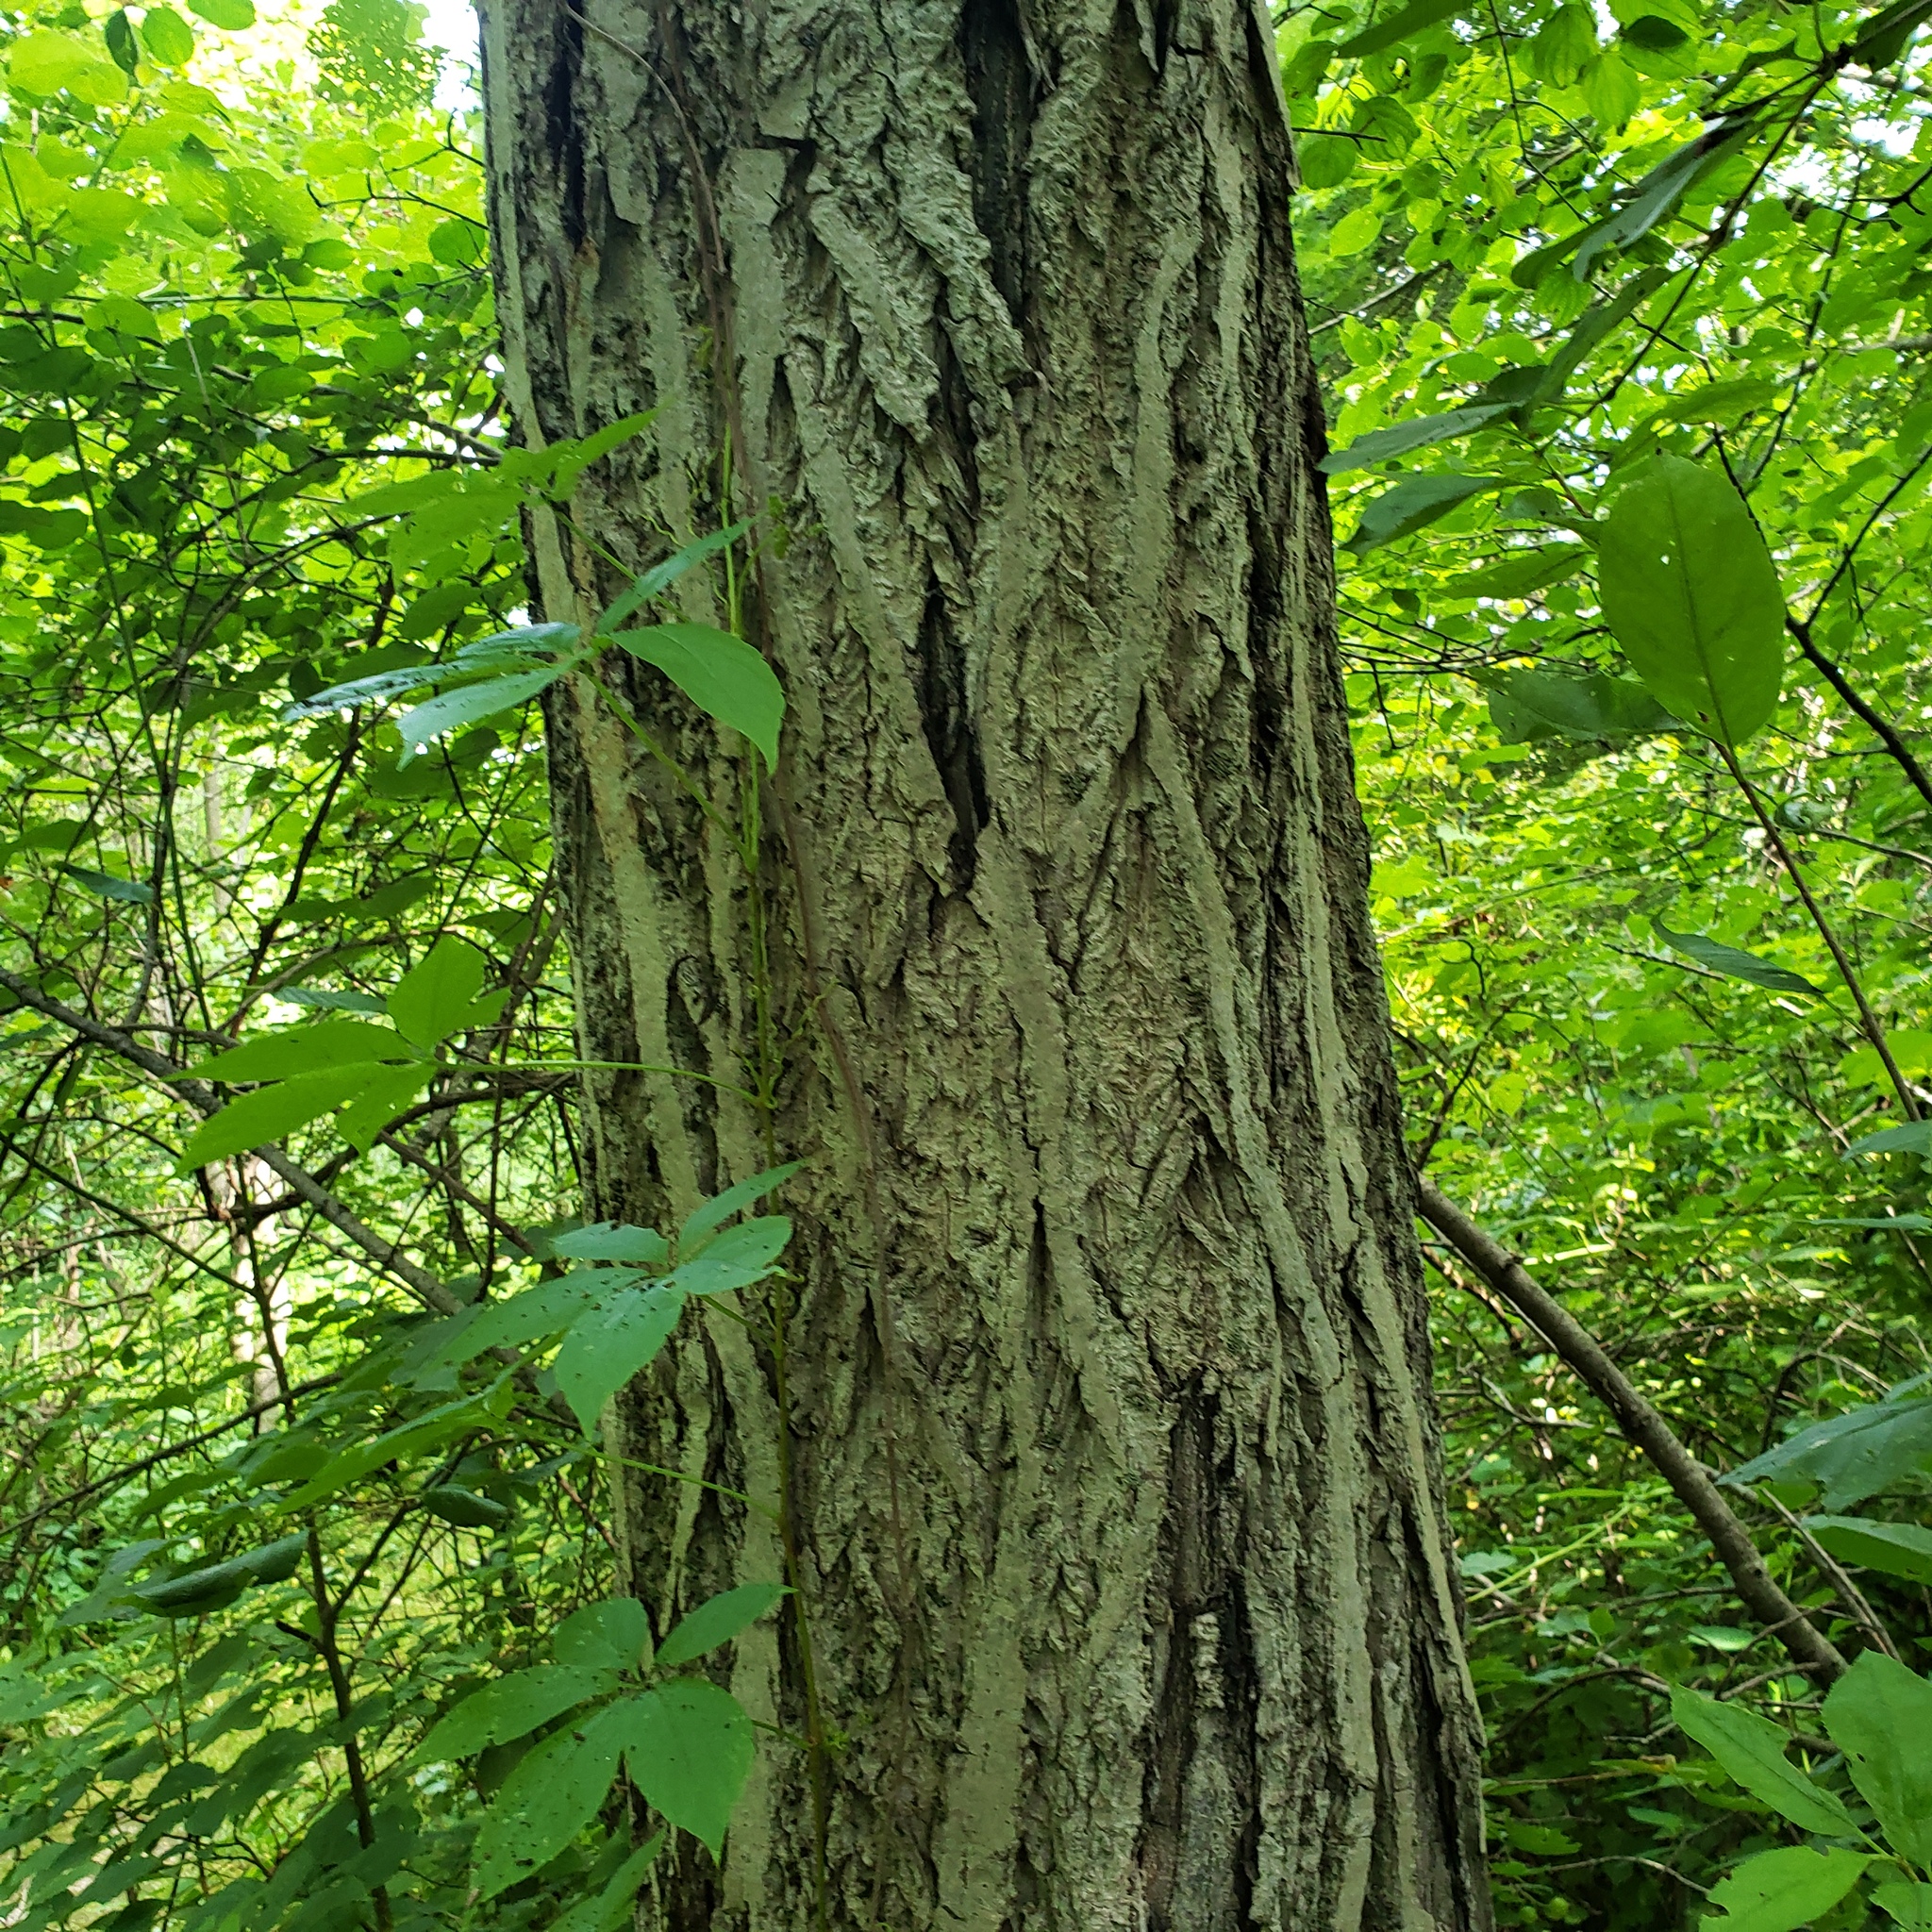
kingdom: Fungi
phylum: Ascomycota
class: Sordariomycetes
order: Diaporthales
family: Gnomoniaceae
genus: Ophiognomonia
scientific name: Ophiognomonia clavigignenti-juglandacearum
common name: Butternut canker fungus
